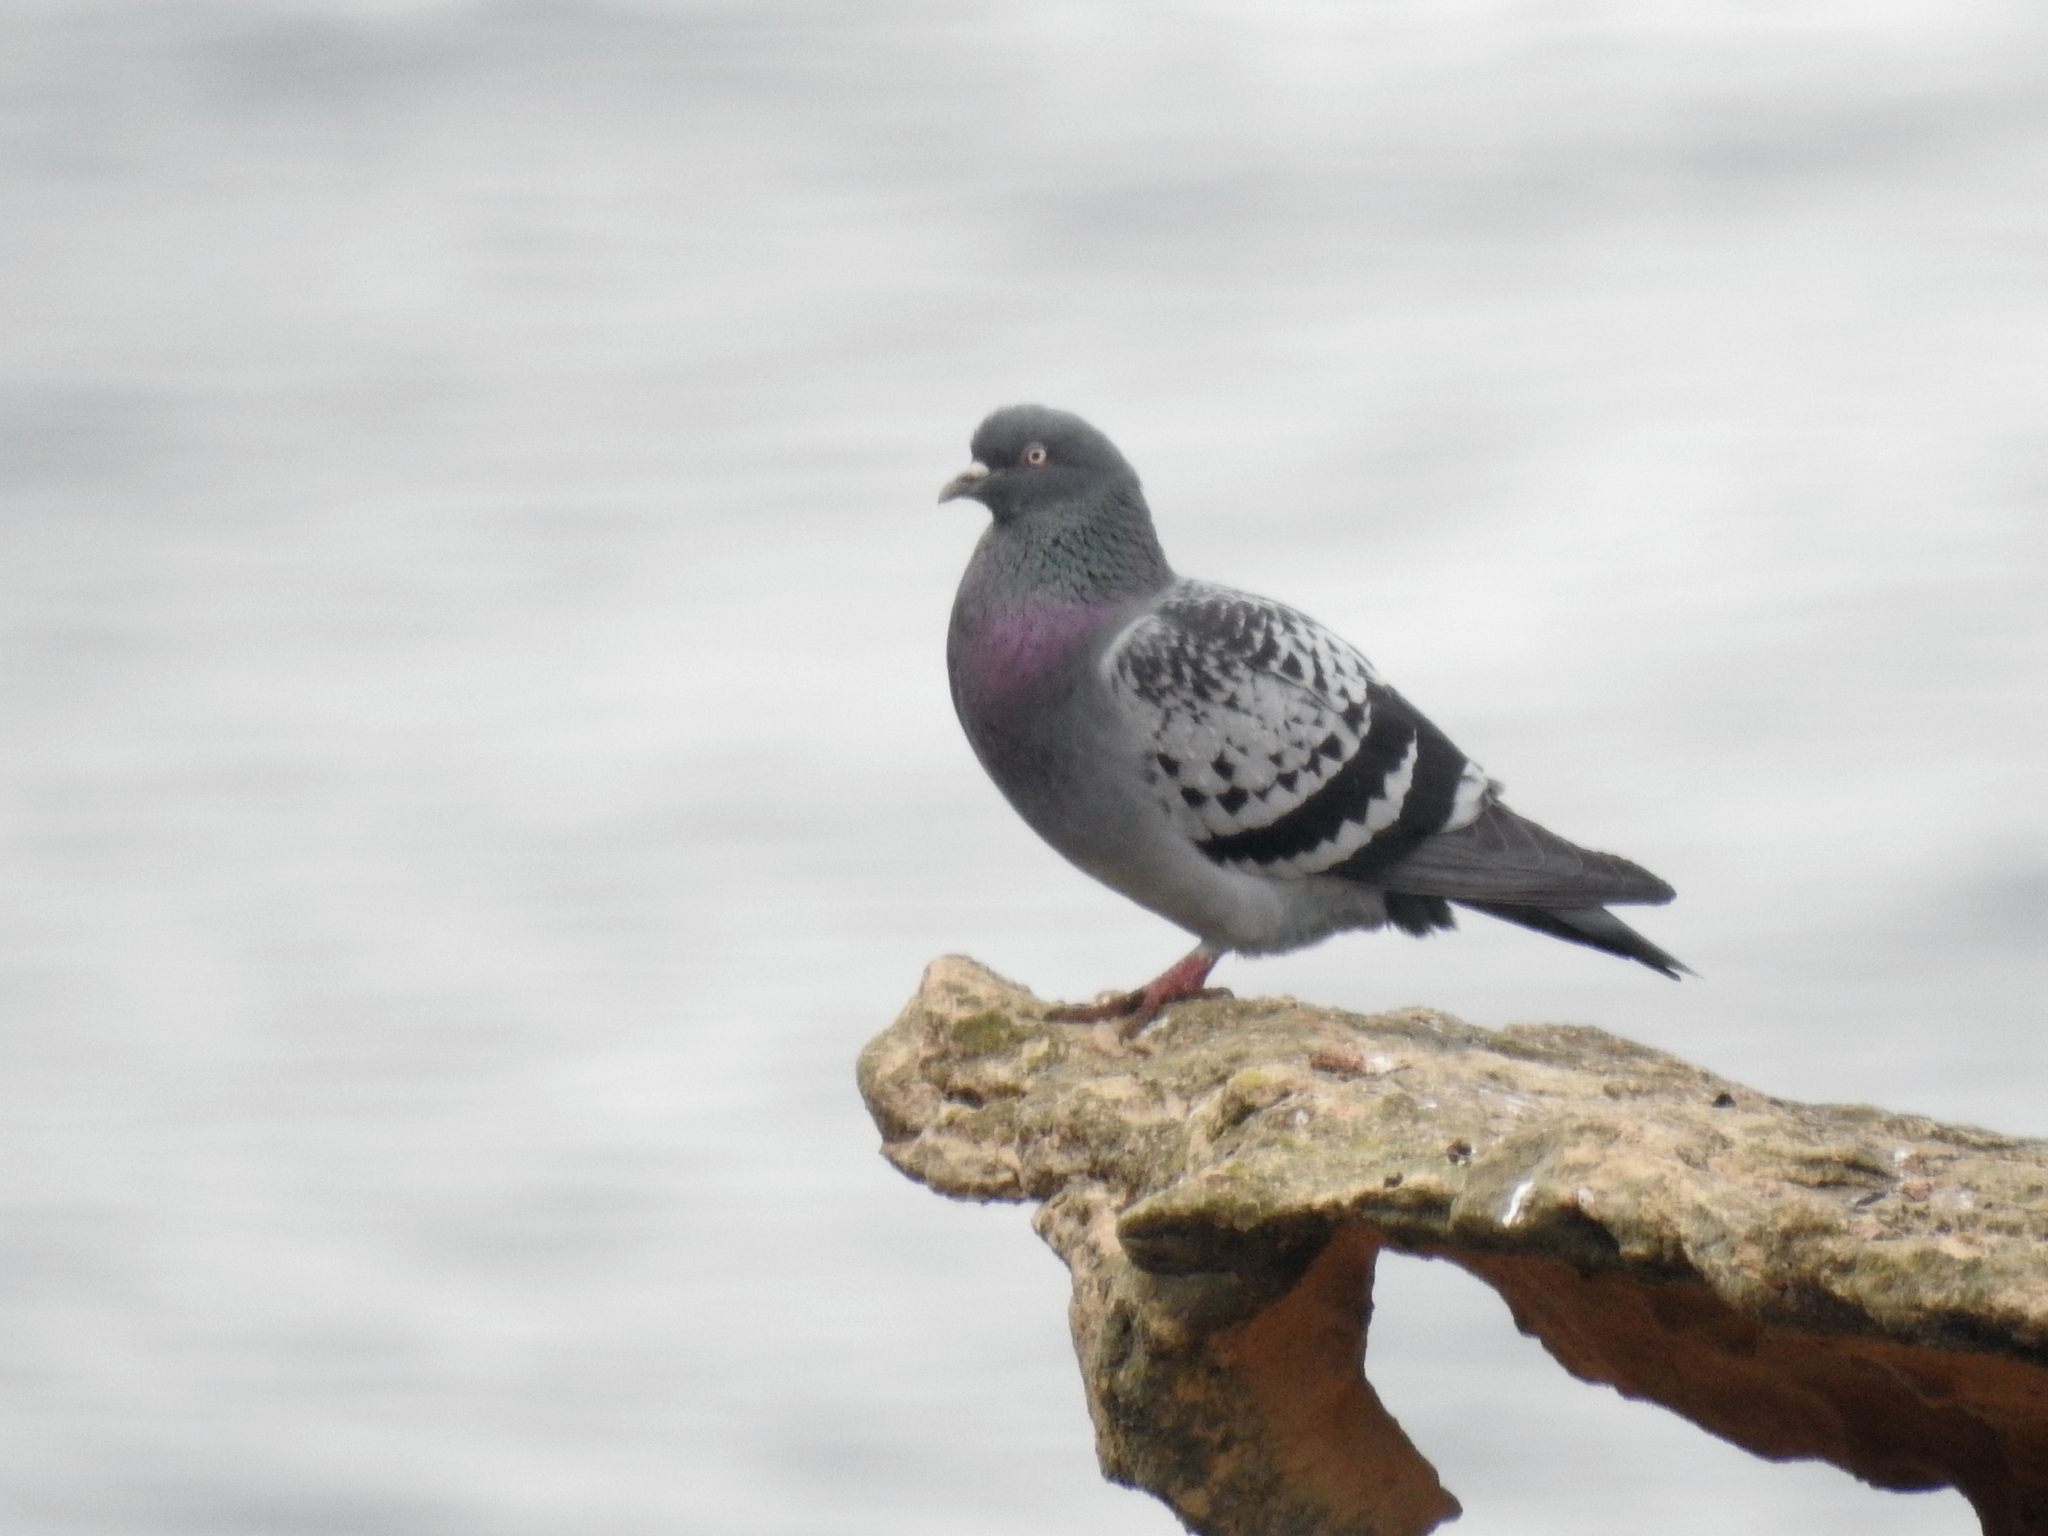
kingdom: Animalia
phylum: Chordata
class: Aves
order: Columbiformes
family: Columbidae
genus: Columba
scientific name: Columba livia
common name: Rock pigeon
